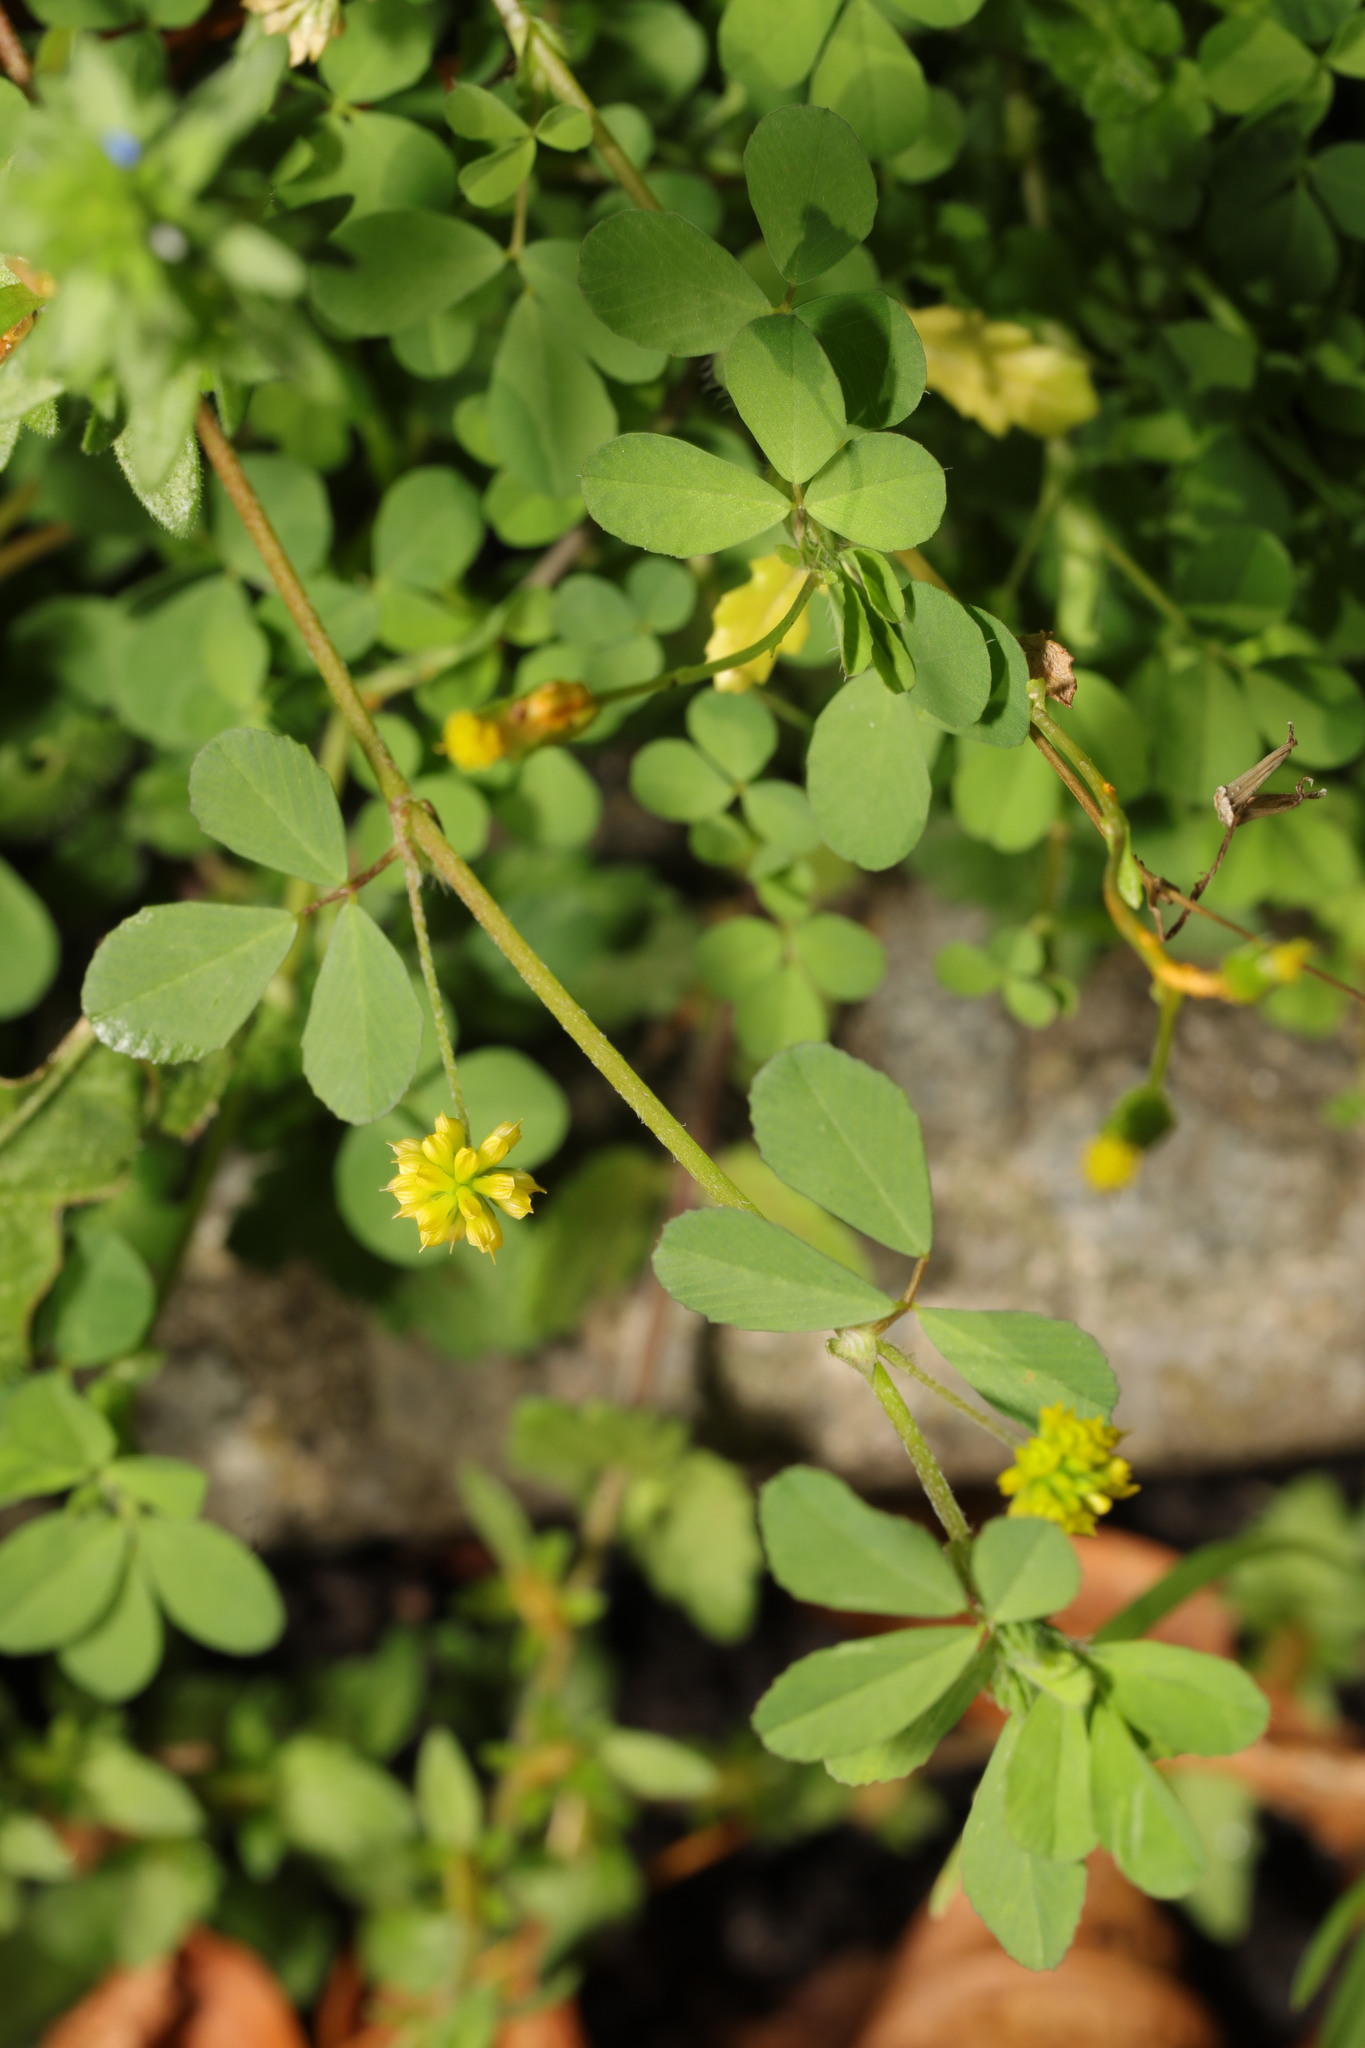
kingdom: Plantae
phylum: Tracheophyta
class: Magnoliopsida
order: Fabales
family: Fabaceae
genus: Trifolium
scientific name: Trifolium dubium
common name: Suckling clover
